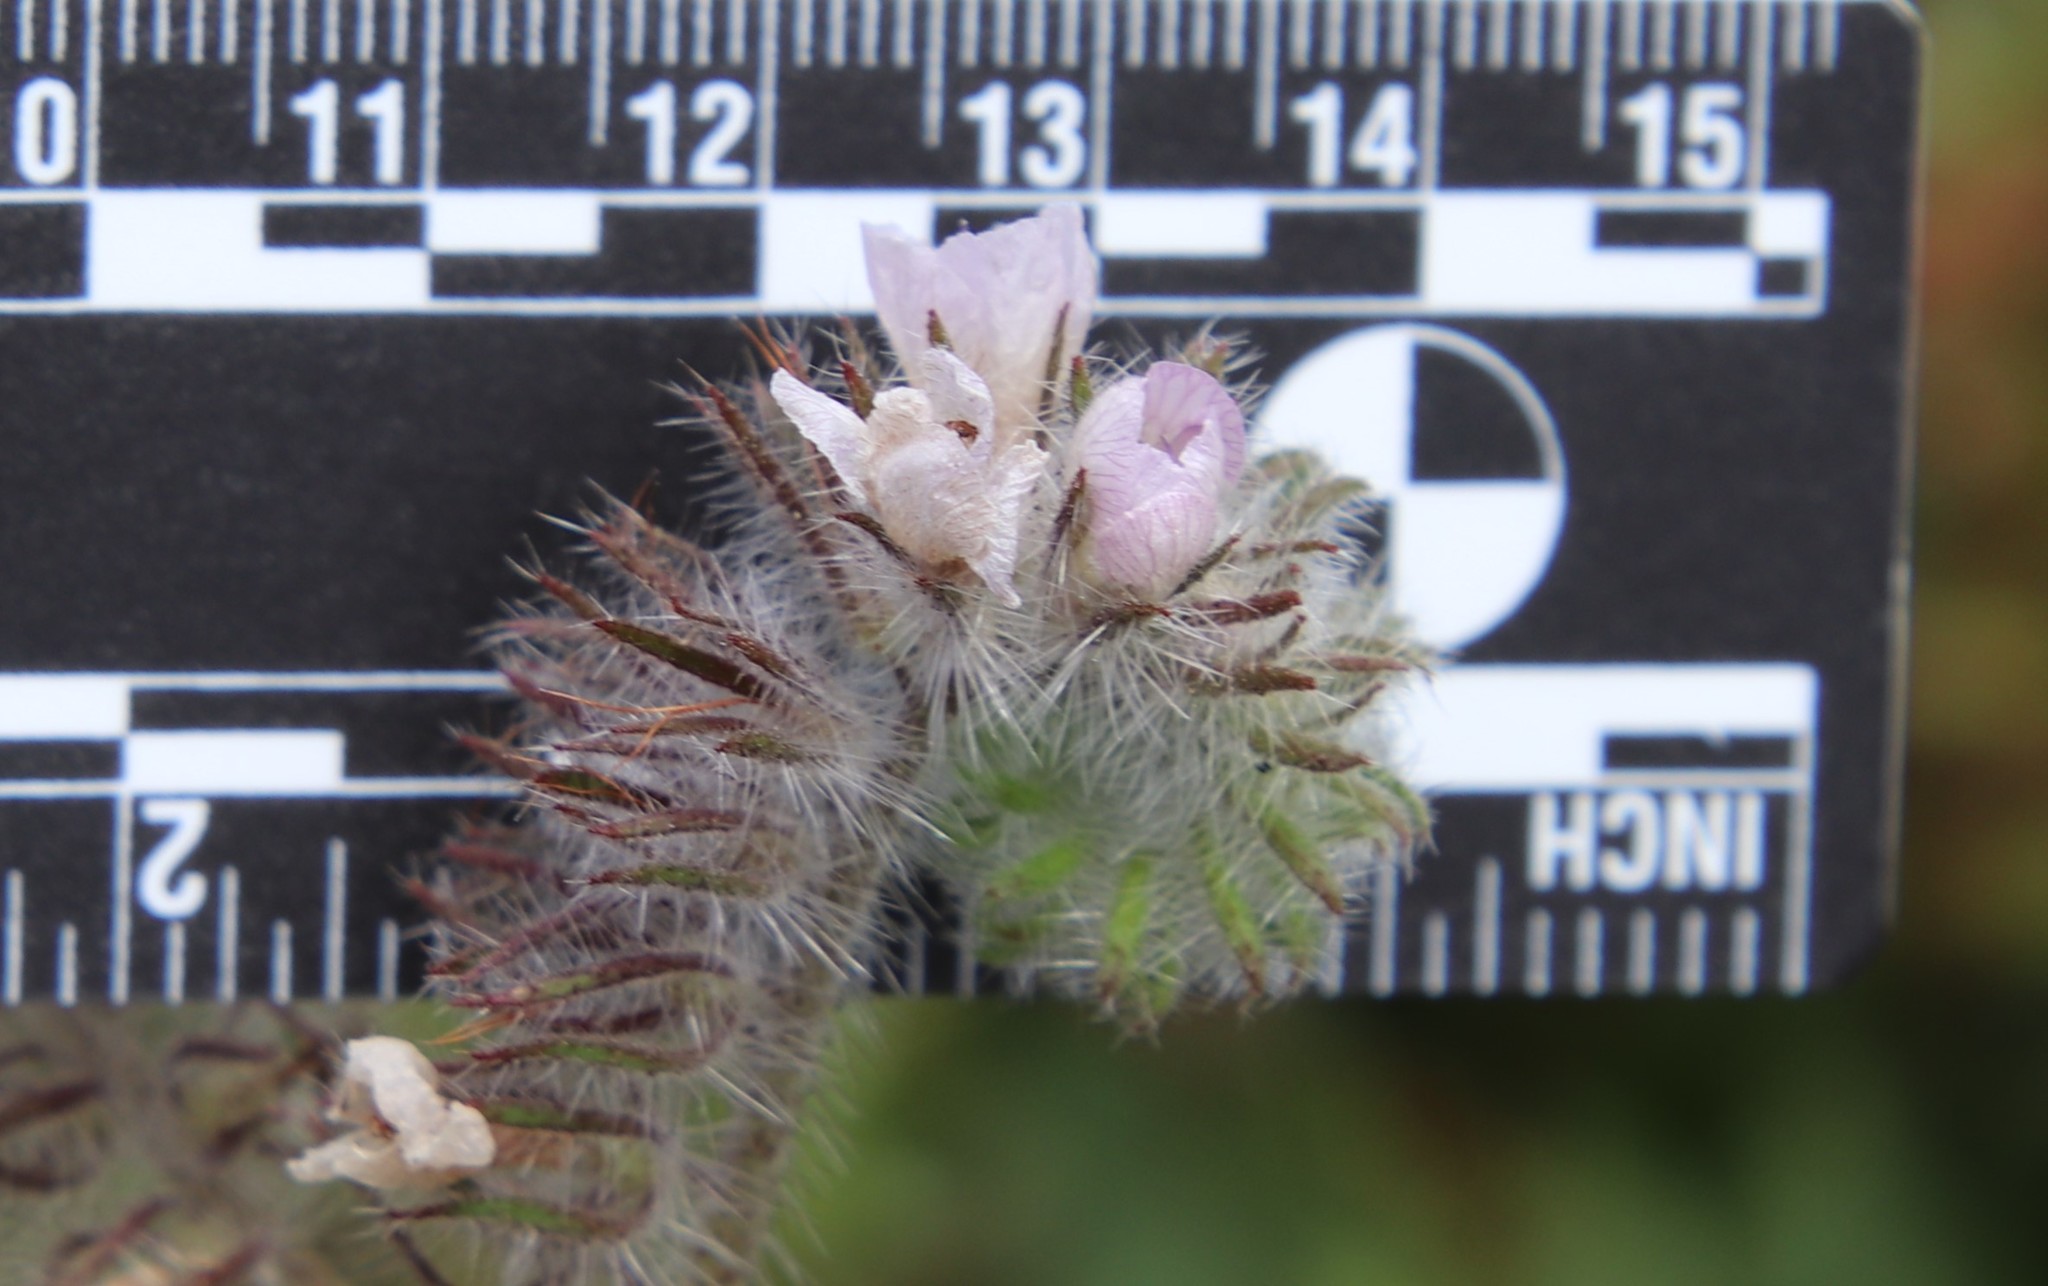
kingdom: Plantae
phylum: Tracheophyta
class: Magnoliopsida
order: Boraginales
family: Hydrophyllaceae
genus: Phacelia
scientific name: Phacelia cicutaria
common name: Caterpillar phacelia
